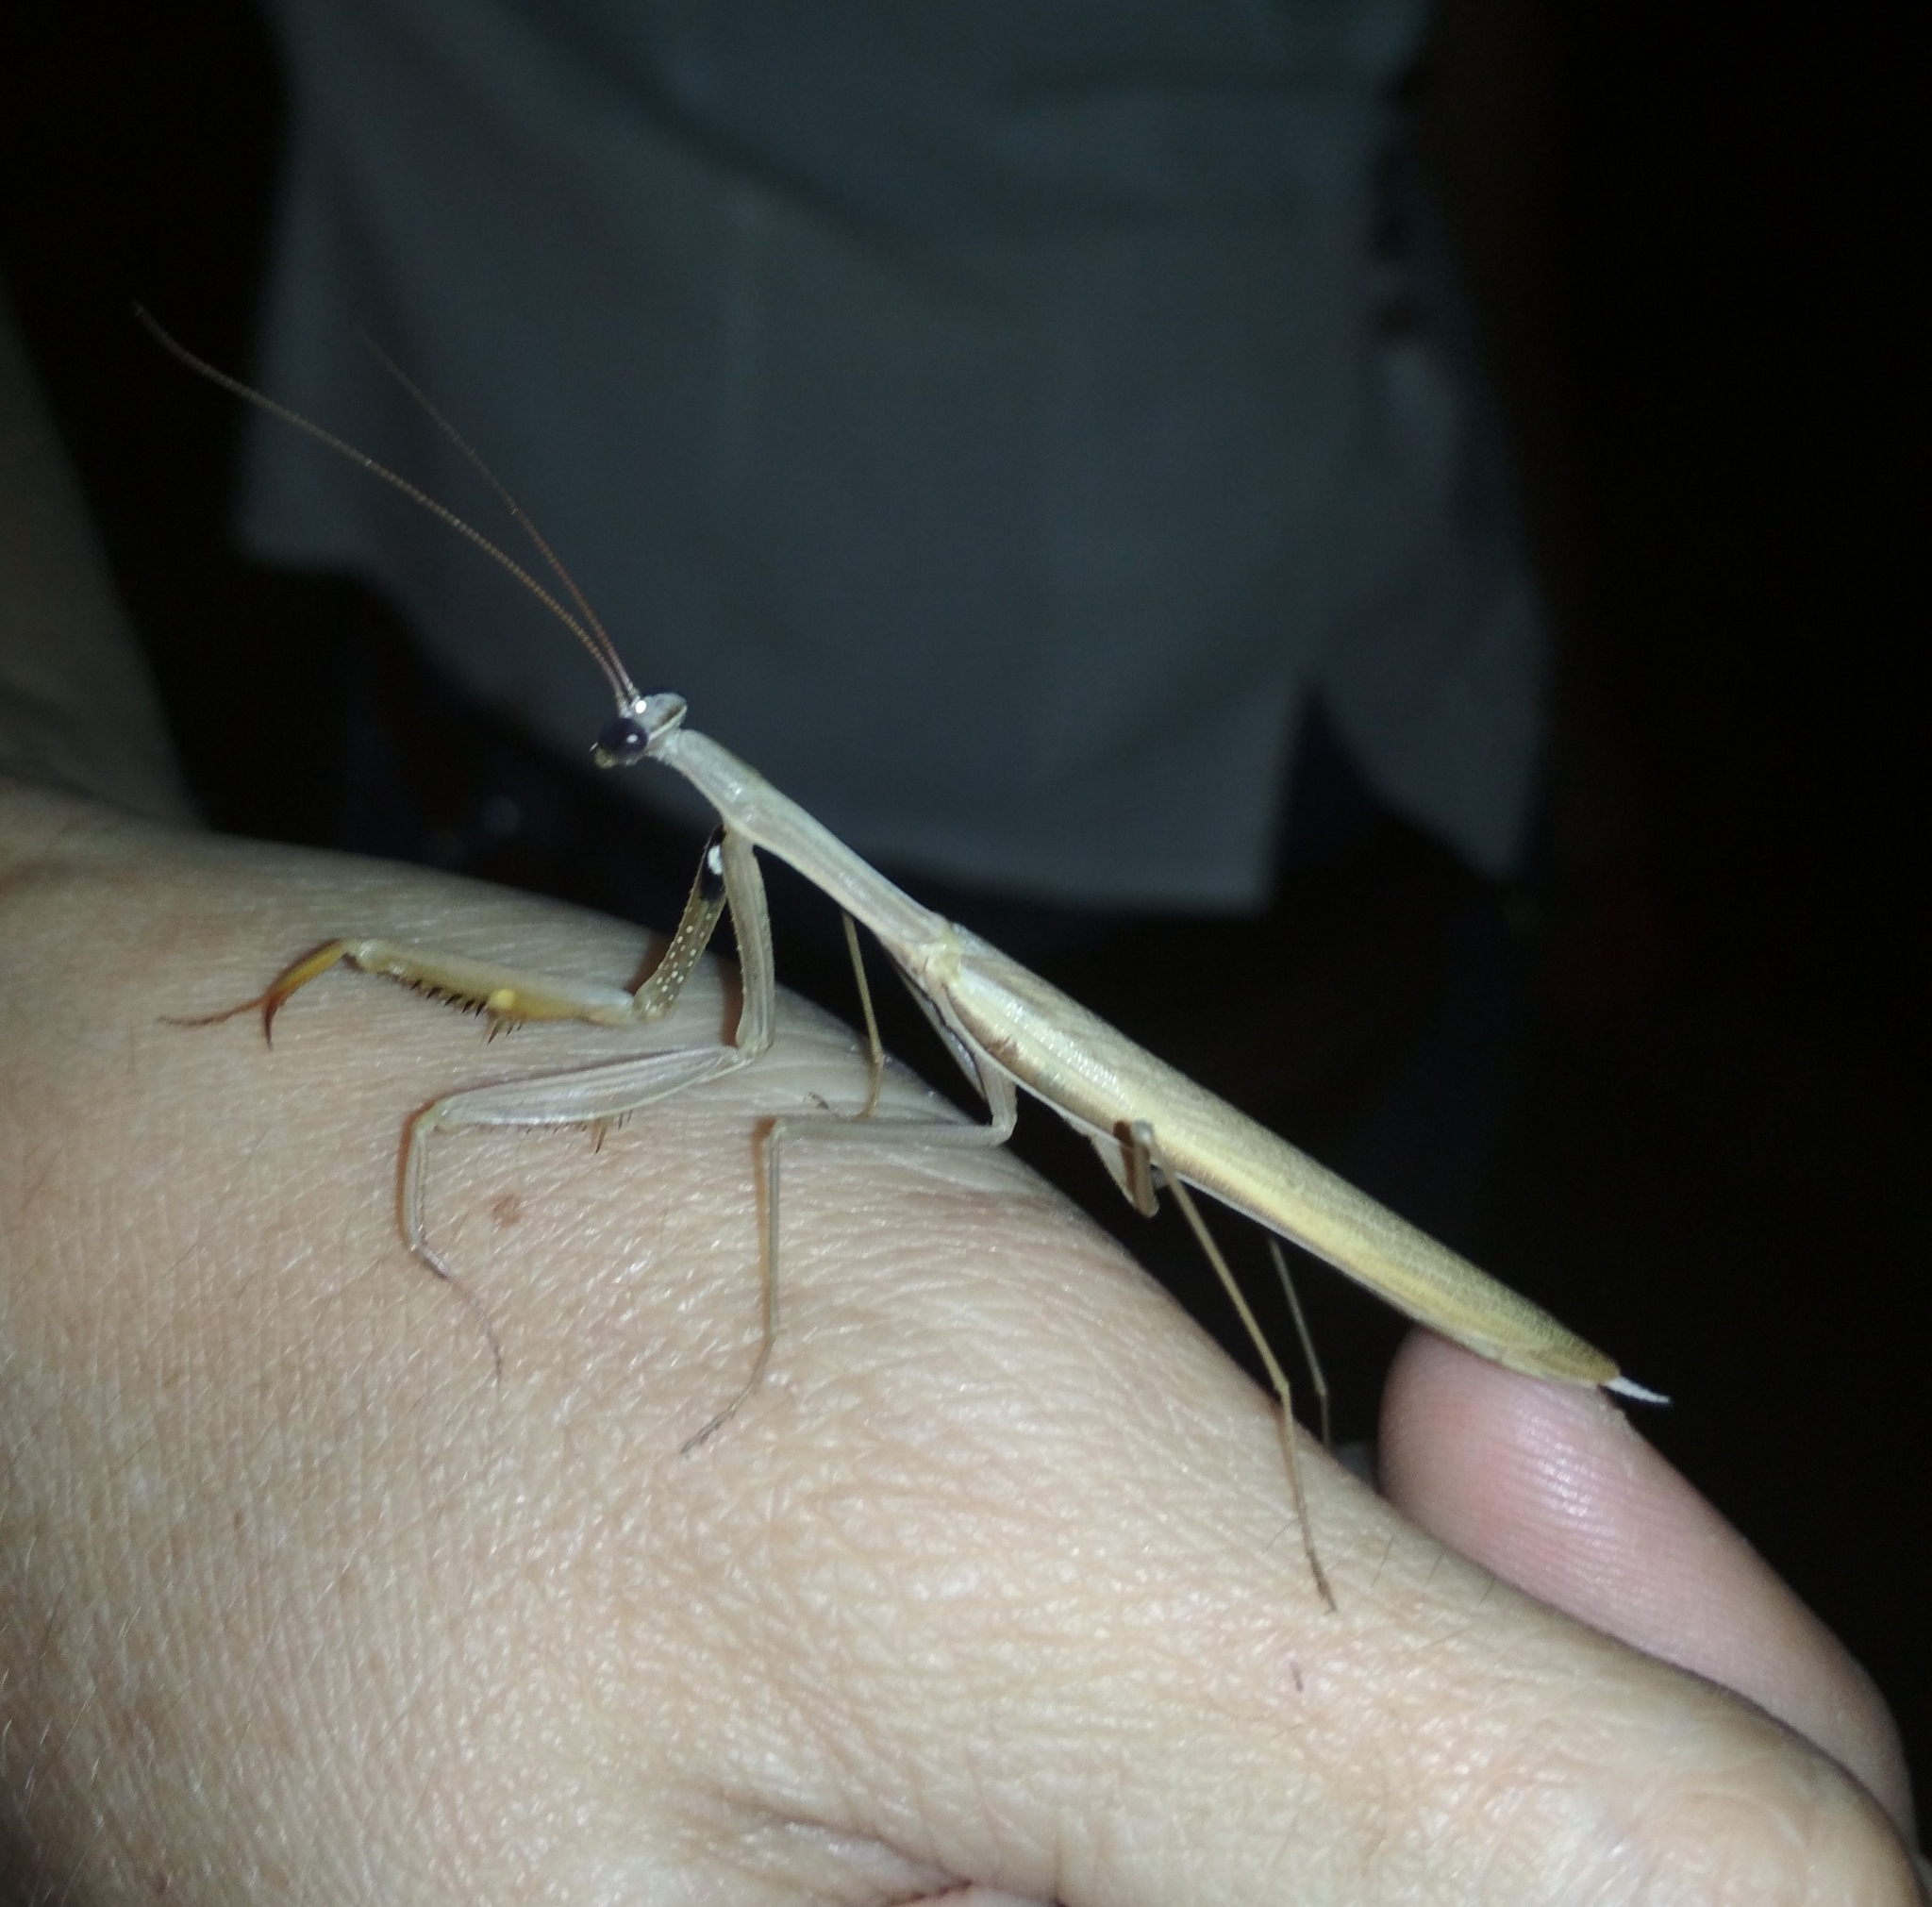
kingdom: Animalia
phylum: Arthropoda
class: Insecta
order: Mantodea
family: Mantidae
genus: Mantis
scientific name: Mantis religiosa
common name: Praying mantis
